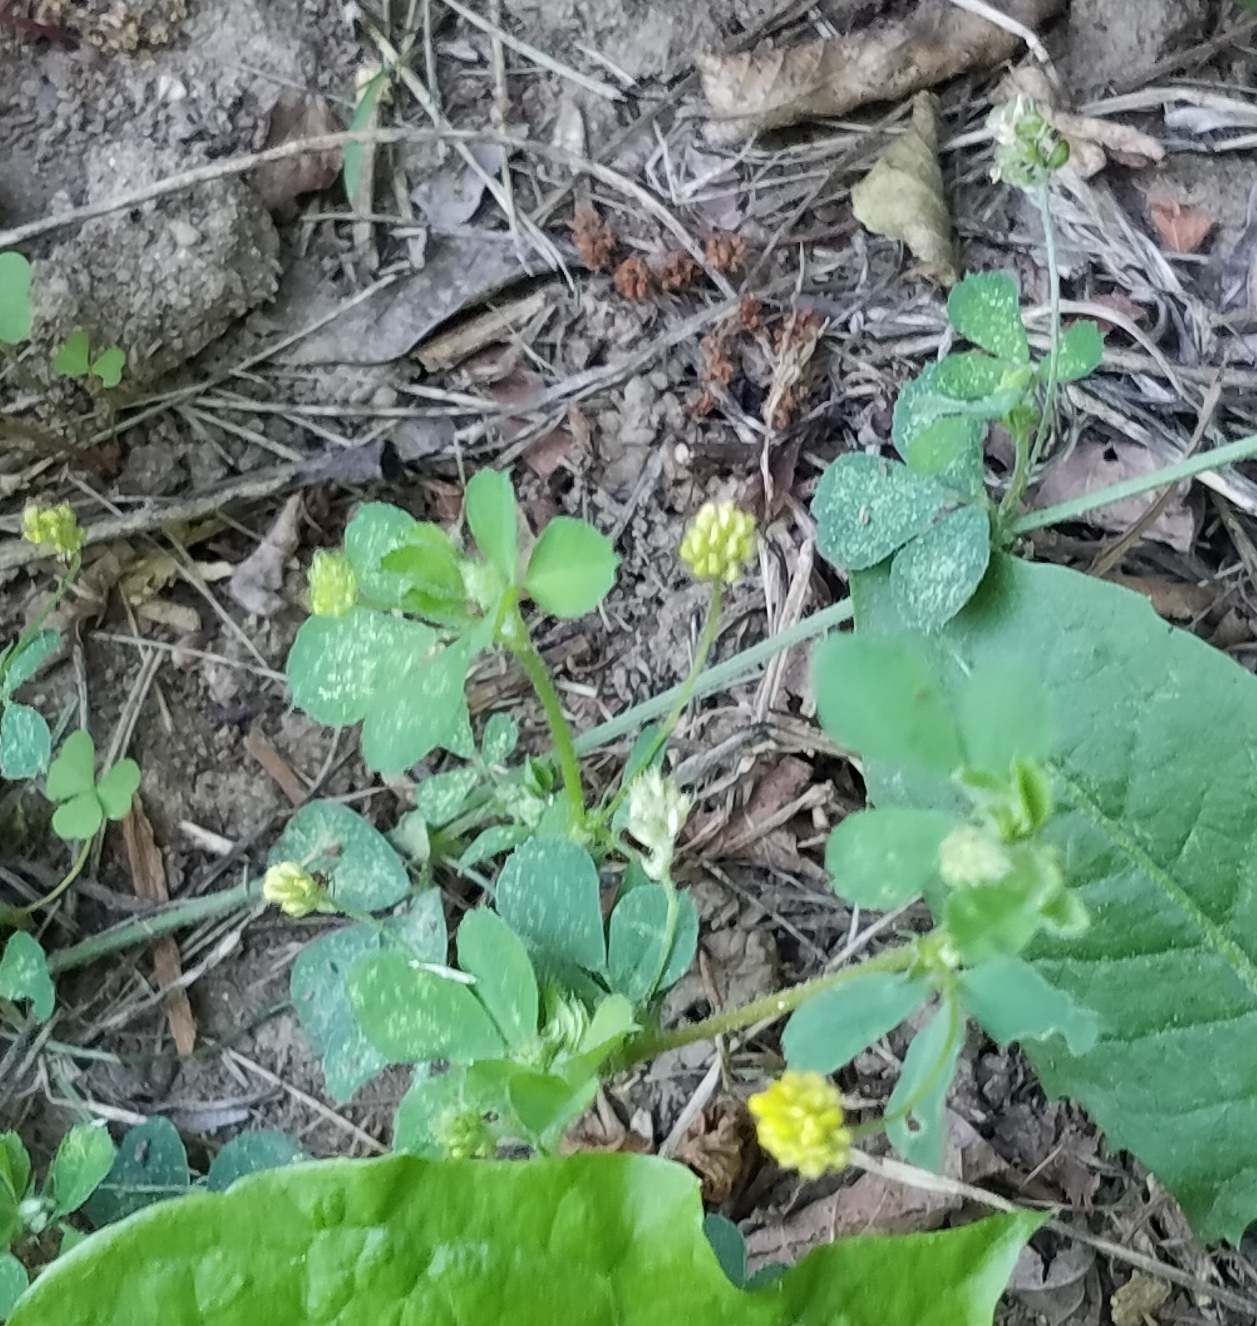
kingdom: Plantae
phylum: Tracheophyta
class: Magnoliopsida
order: Fabales
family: Fabaceae
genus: Medicago
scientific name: Medicago lupulina
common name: Black medick
